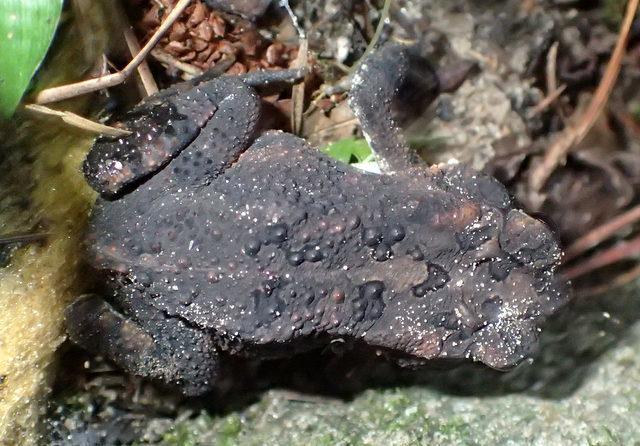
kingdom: Animalia
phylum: Chordata
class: Amphibia
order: Anura
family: Bufonidae
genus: Anaxyrus
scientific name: Anaxyrus terrestris
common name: Southern toad
